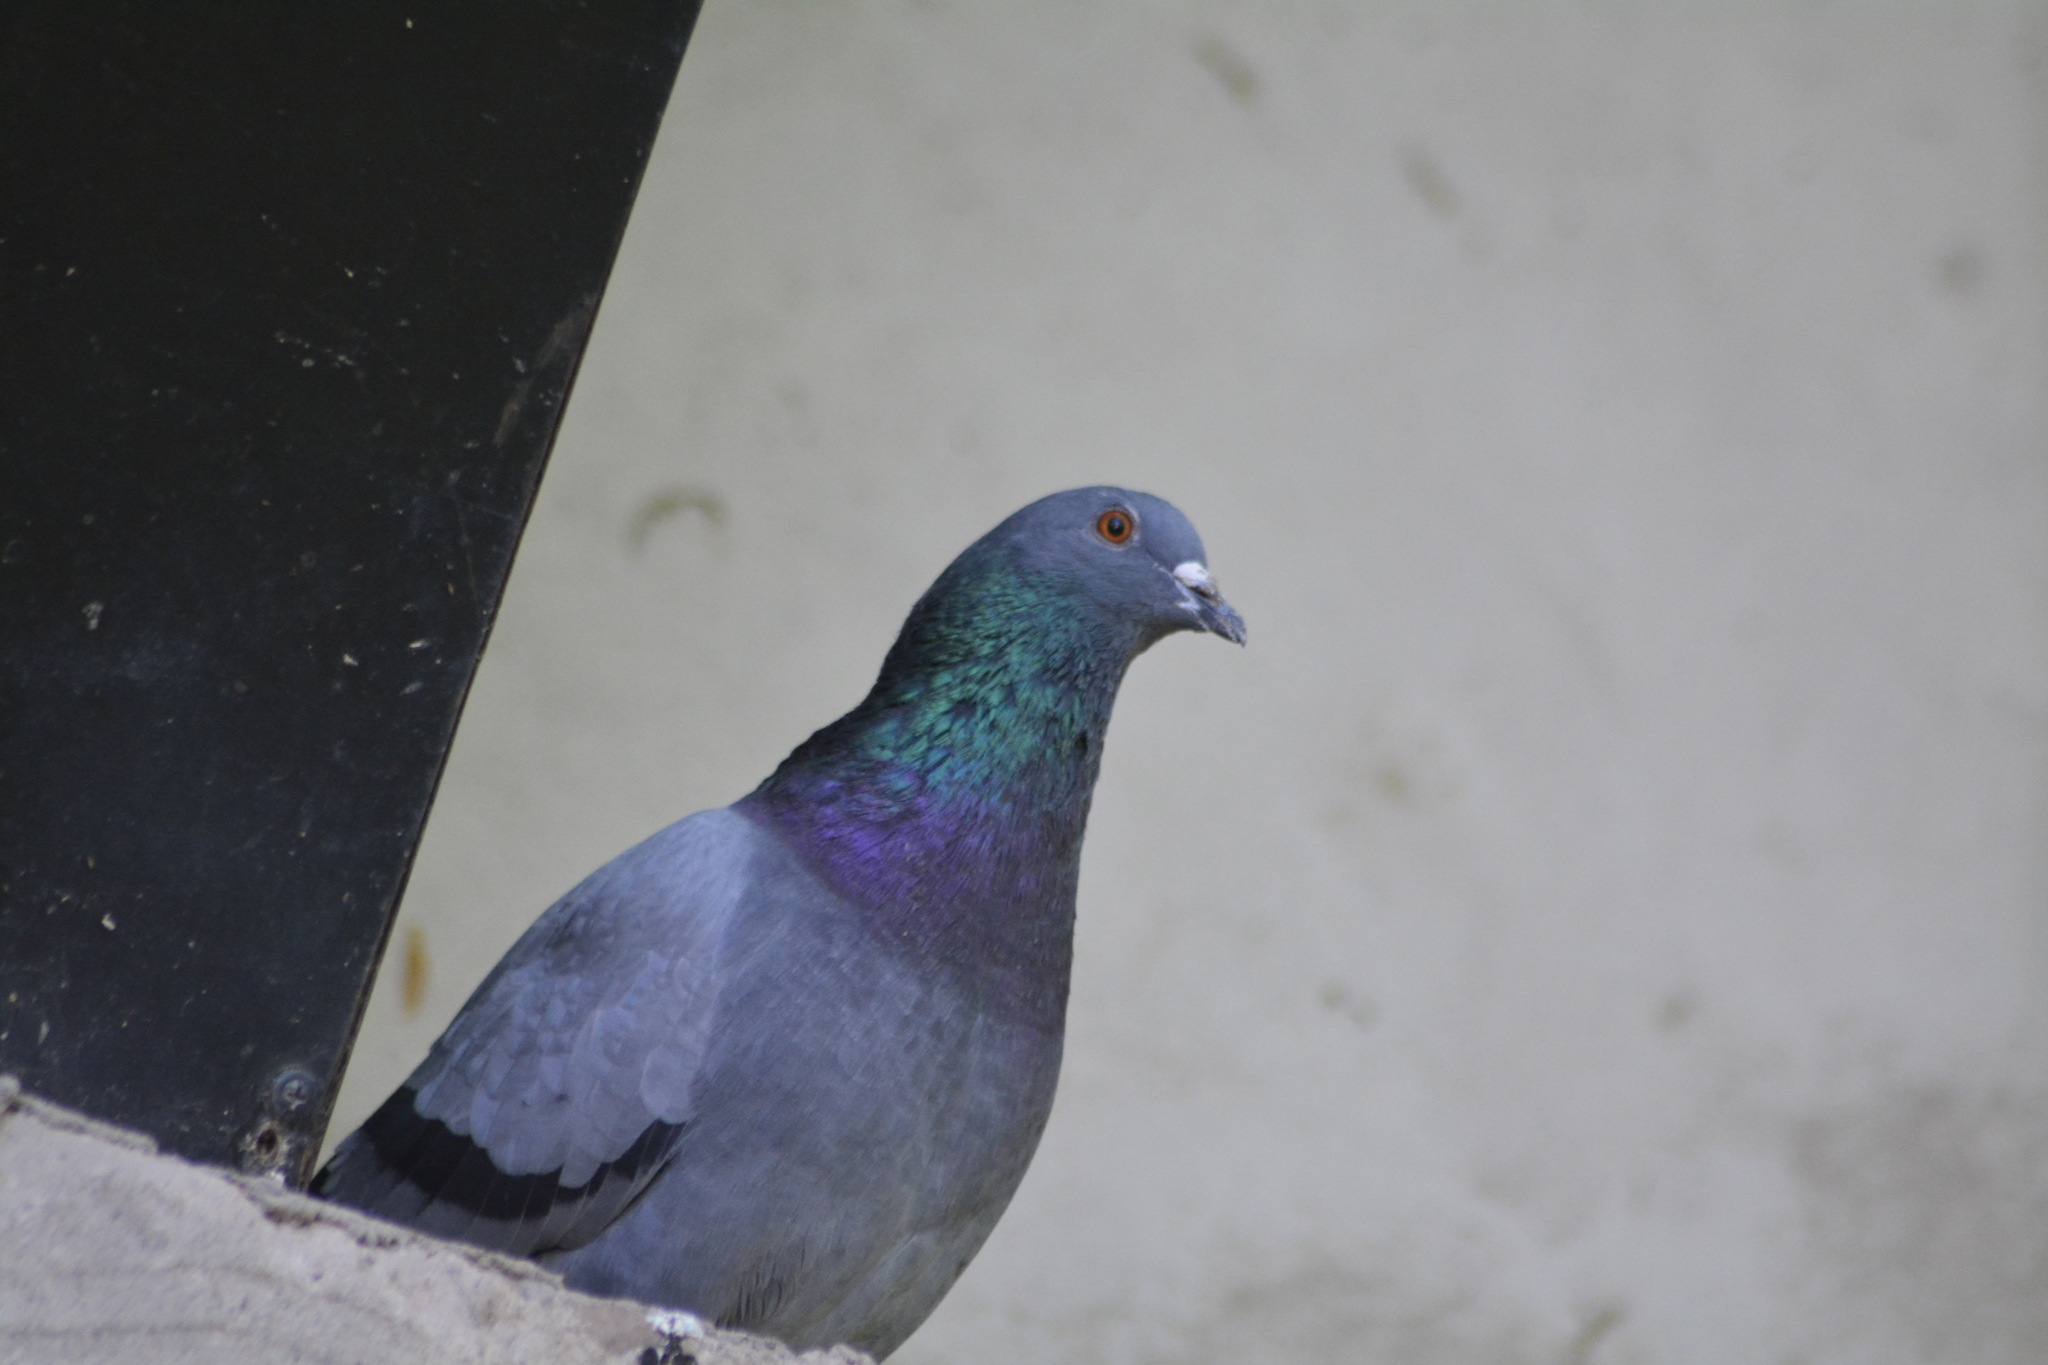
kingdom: Animalia
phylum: Chordata
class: Aves
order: Columbiformes
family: Columbidae
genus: Columba
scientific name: Columba livia
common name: Rock pigeon
